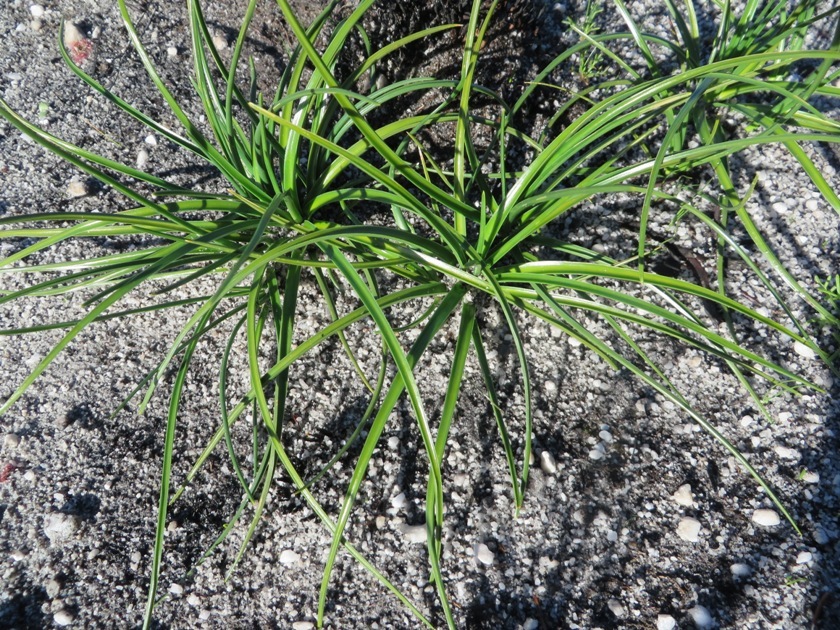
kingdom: Plantae
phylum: Tracheophyta
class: Liliopsida
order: Poales
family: Cyperaceae
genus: Ficinia
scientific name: Ficinia radiata
